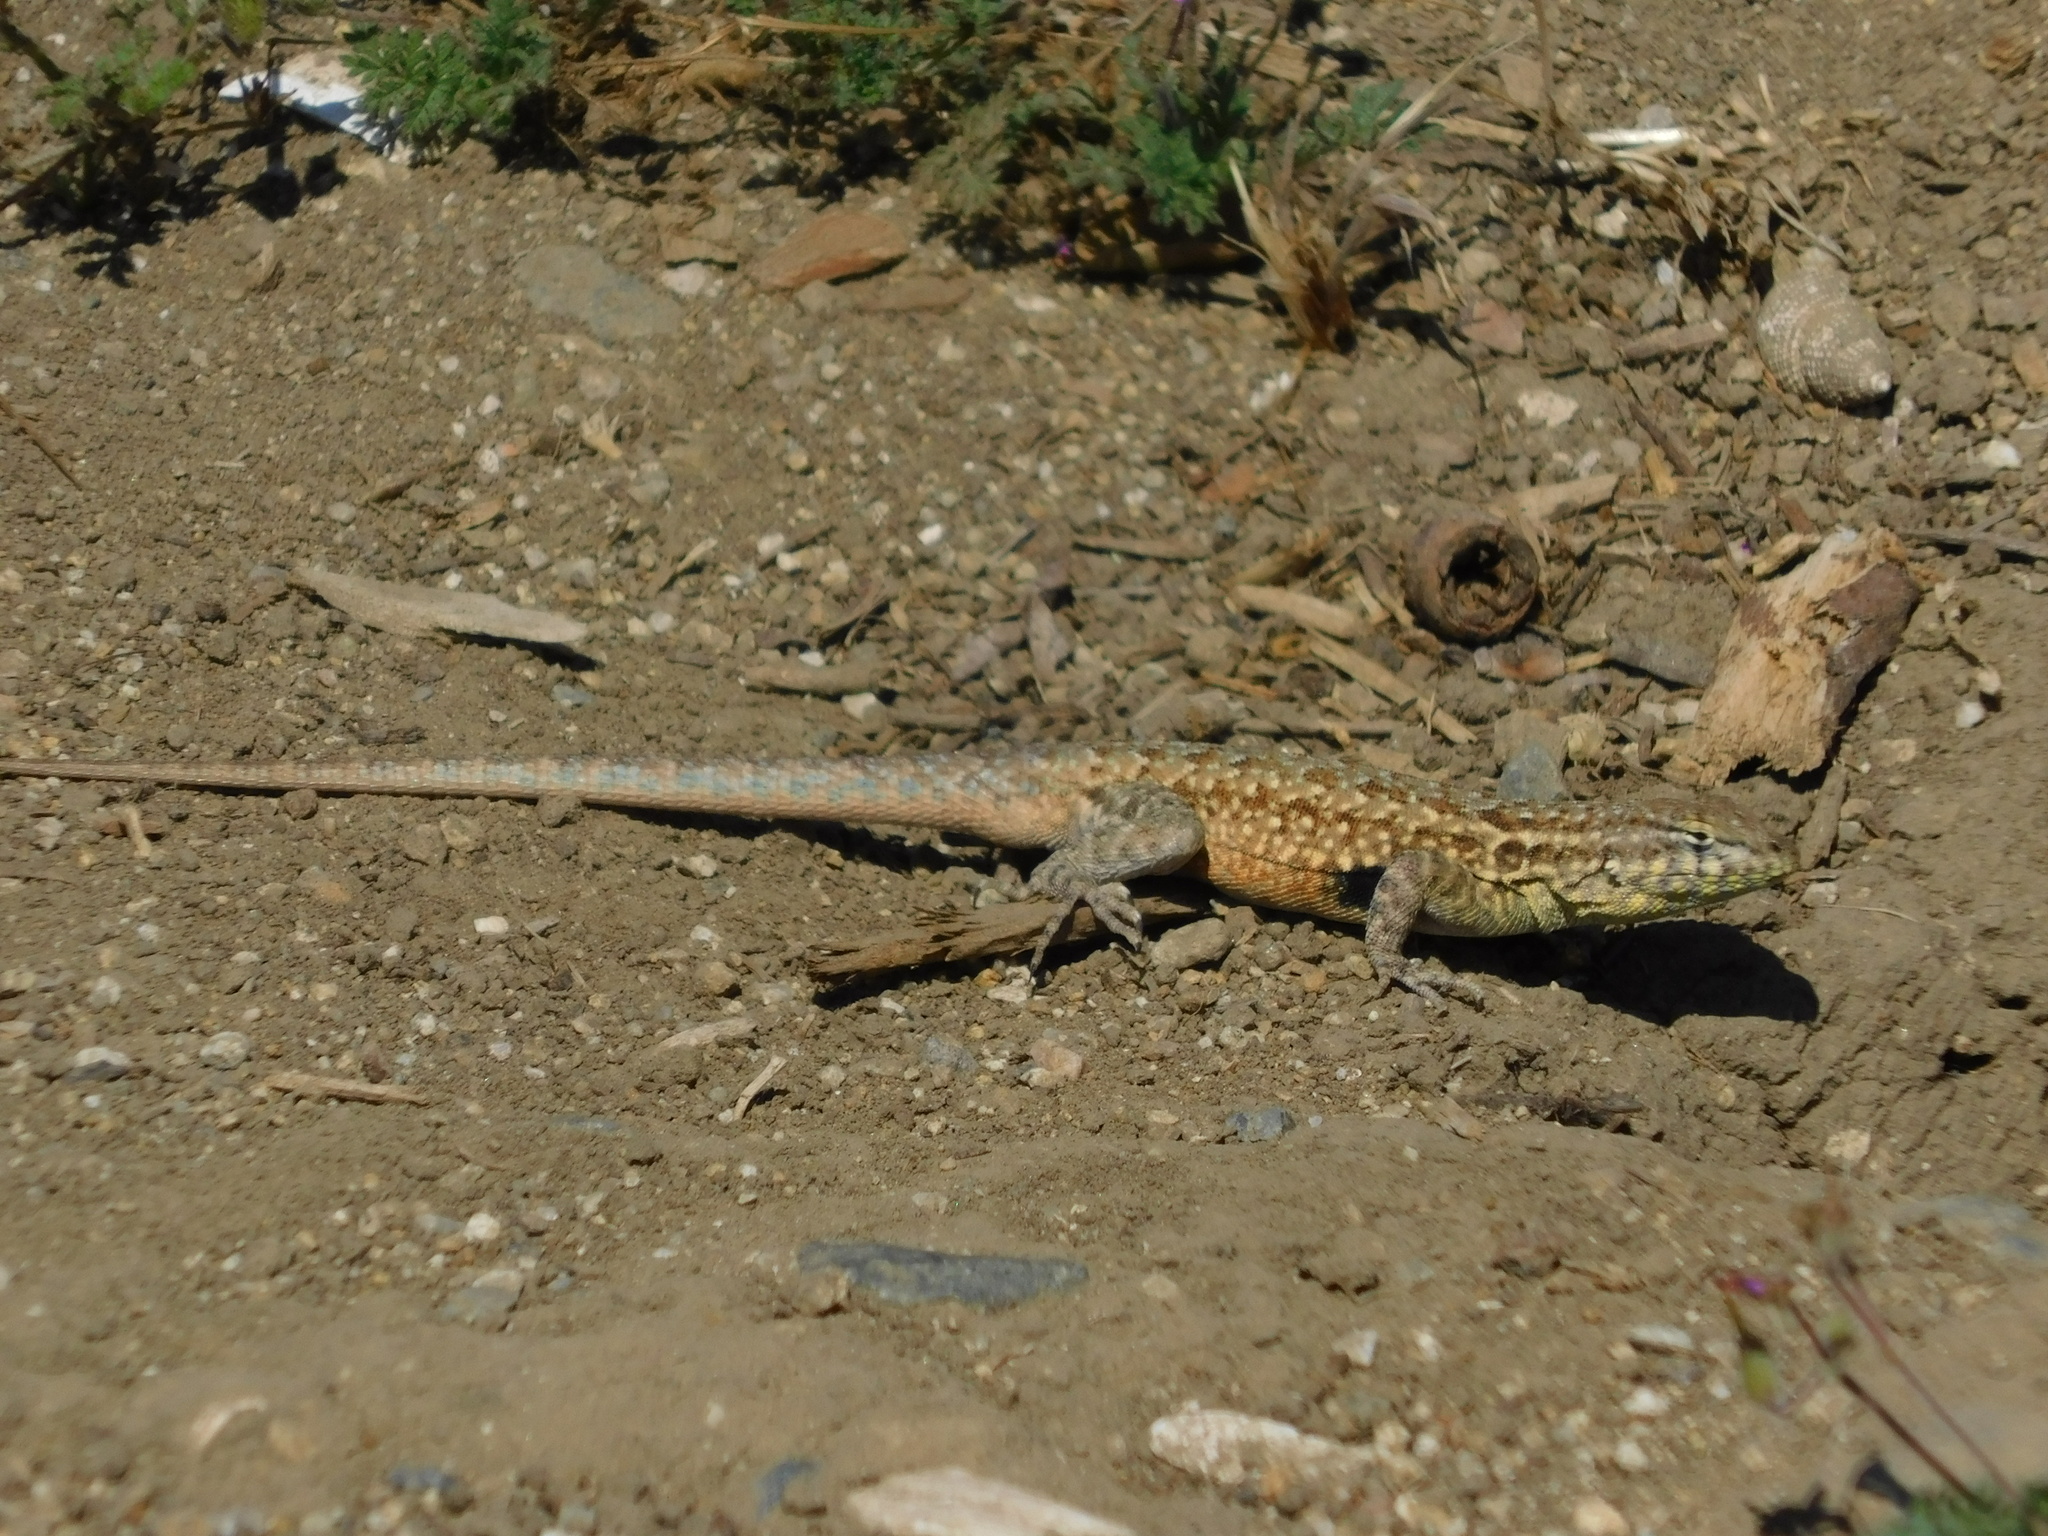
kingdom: Animalia
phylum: Chordata
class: Squamata
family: Phrynosomatidae
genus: Uta
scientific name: Uta stansburiana
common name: Side-blotched lizard
